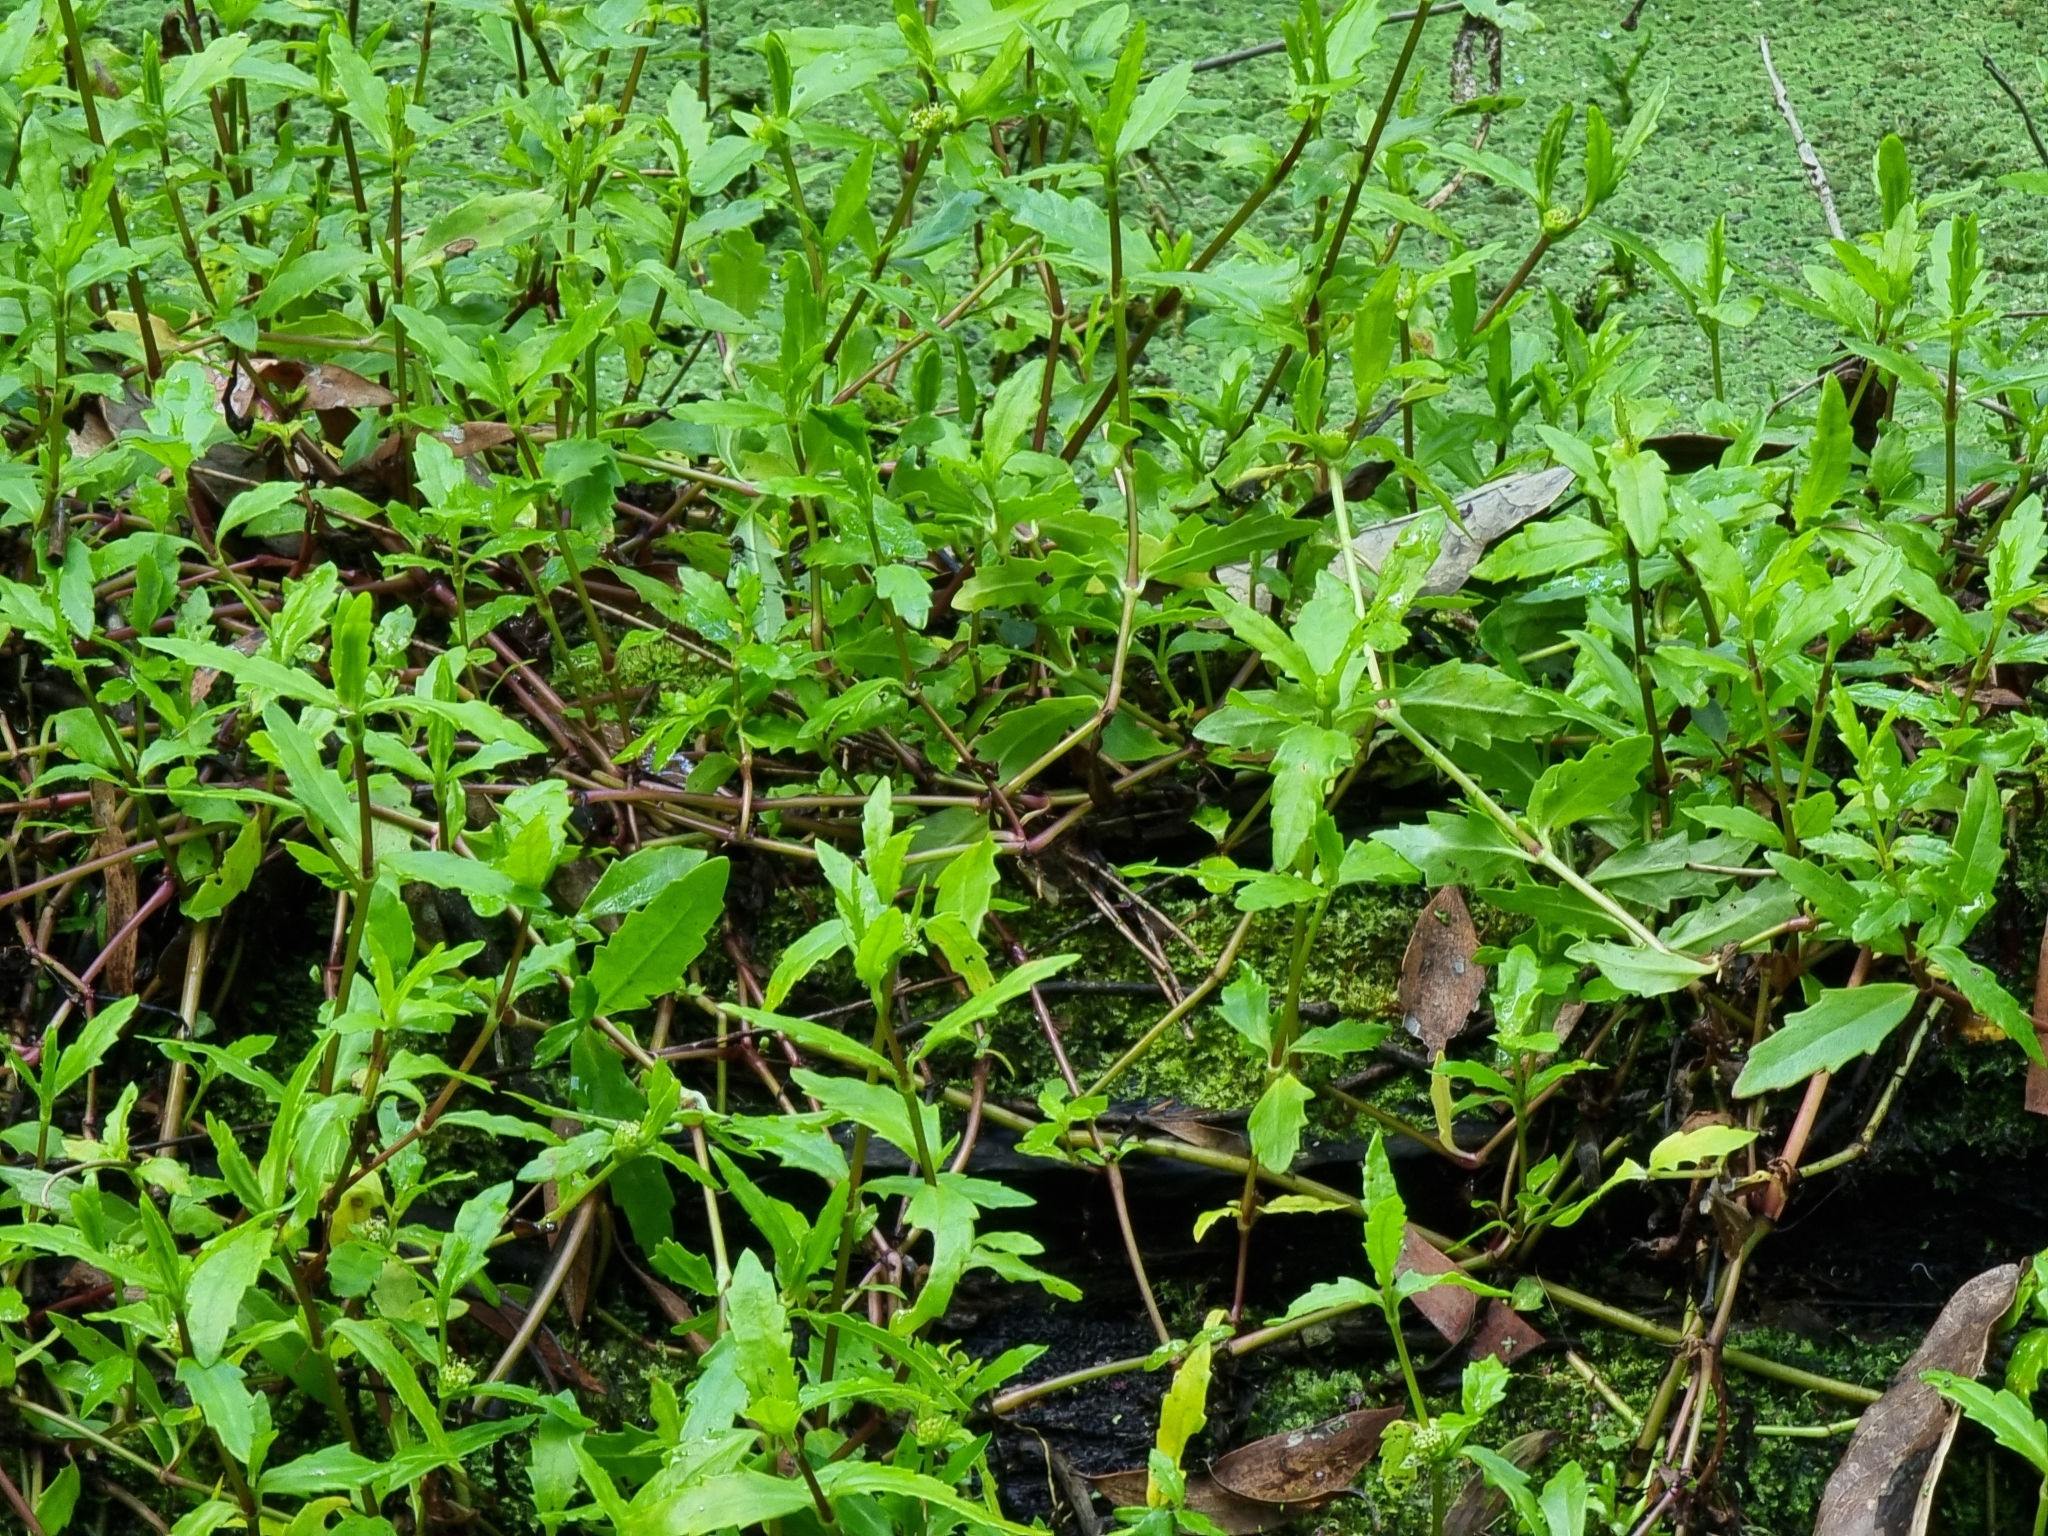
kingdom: Plantae
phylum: Tracheophyta
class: Magnoliopsida
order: Asterales
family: Asteraceae
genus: Enydra
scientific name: Enydra fluctuans
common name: Buffalo spinach
